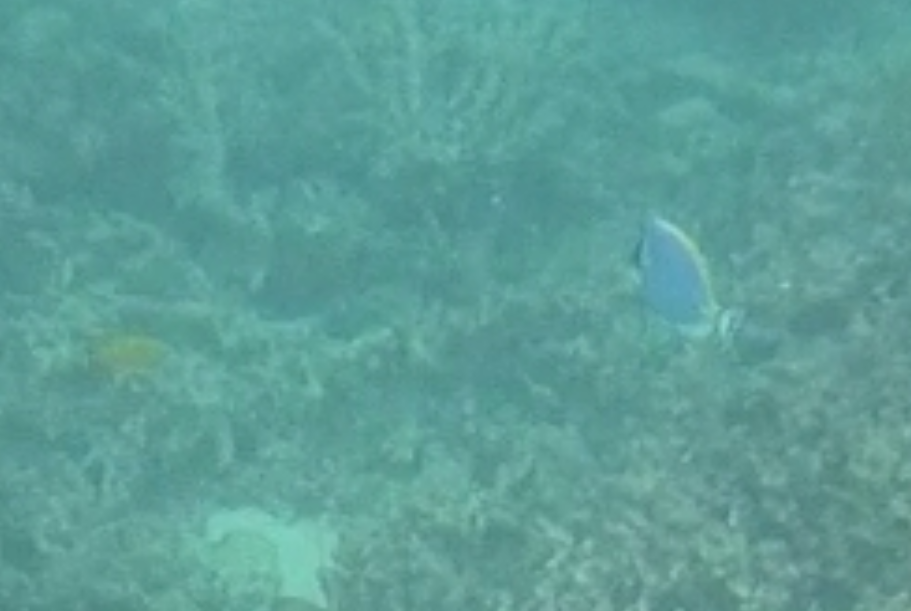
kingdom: Animalia
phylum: Chordata
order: Perciformes
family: Acanthuridae
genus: Acanthurus
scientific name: Acanthurus leucosternon
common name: Blue surgeonfish
